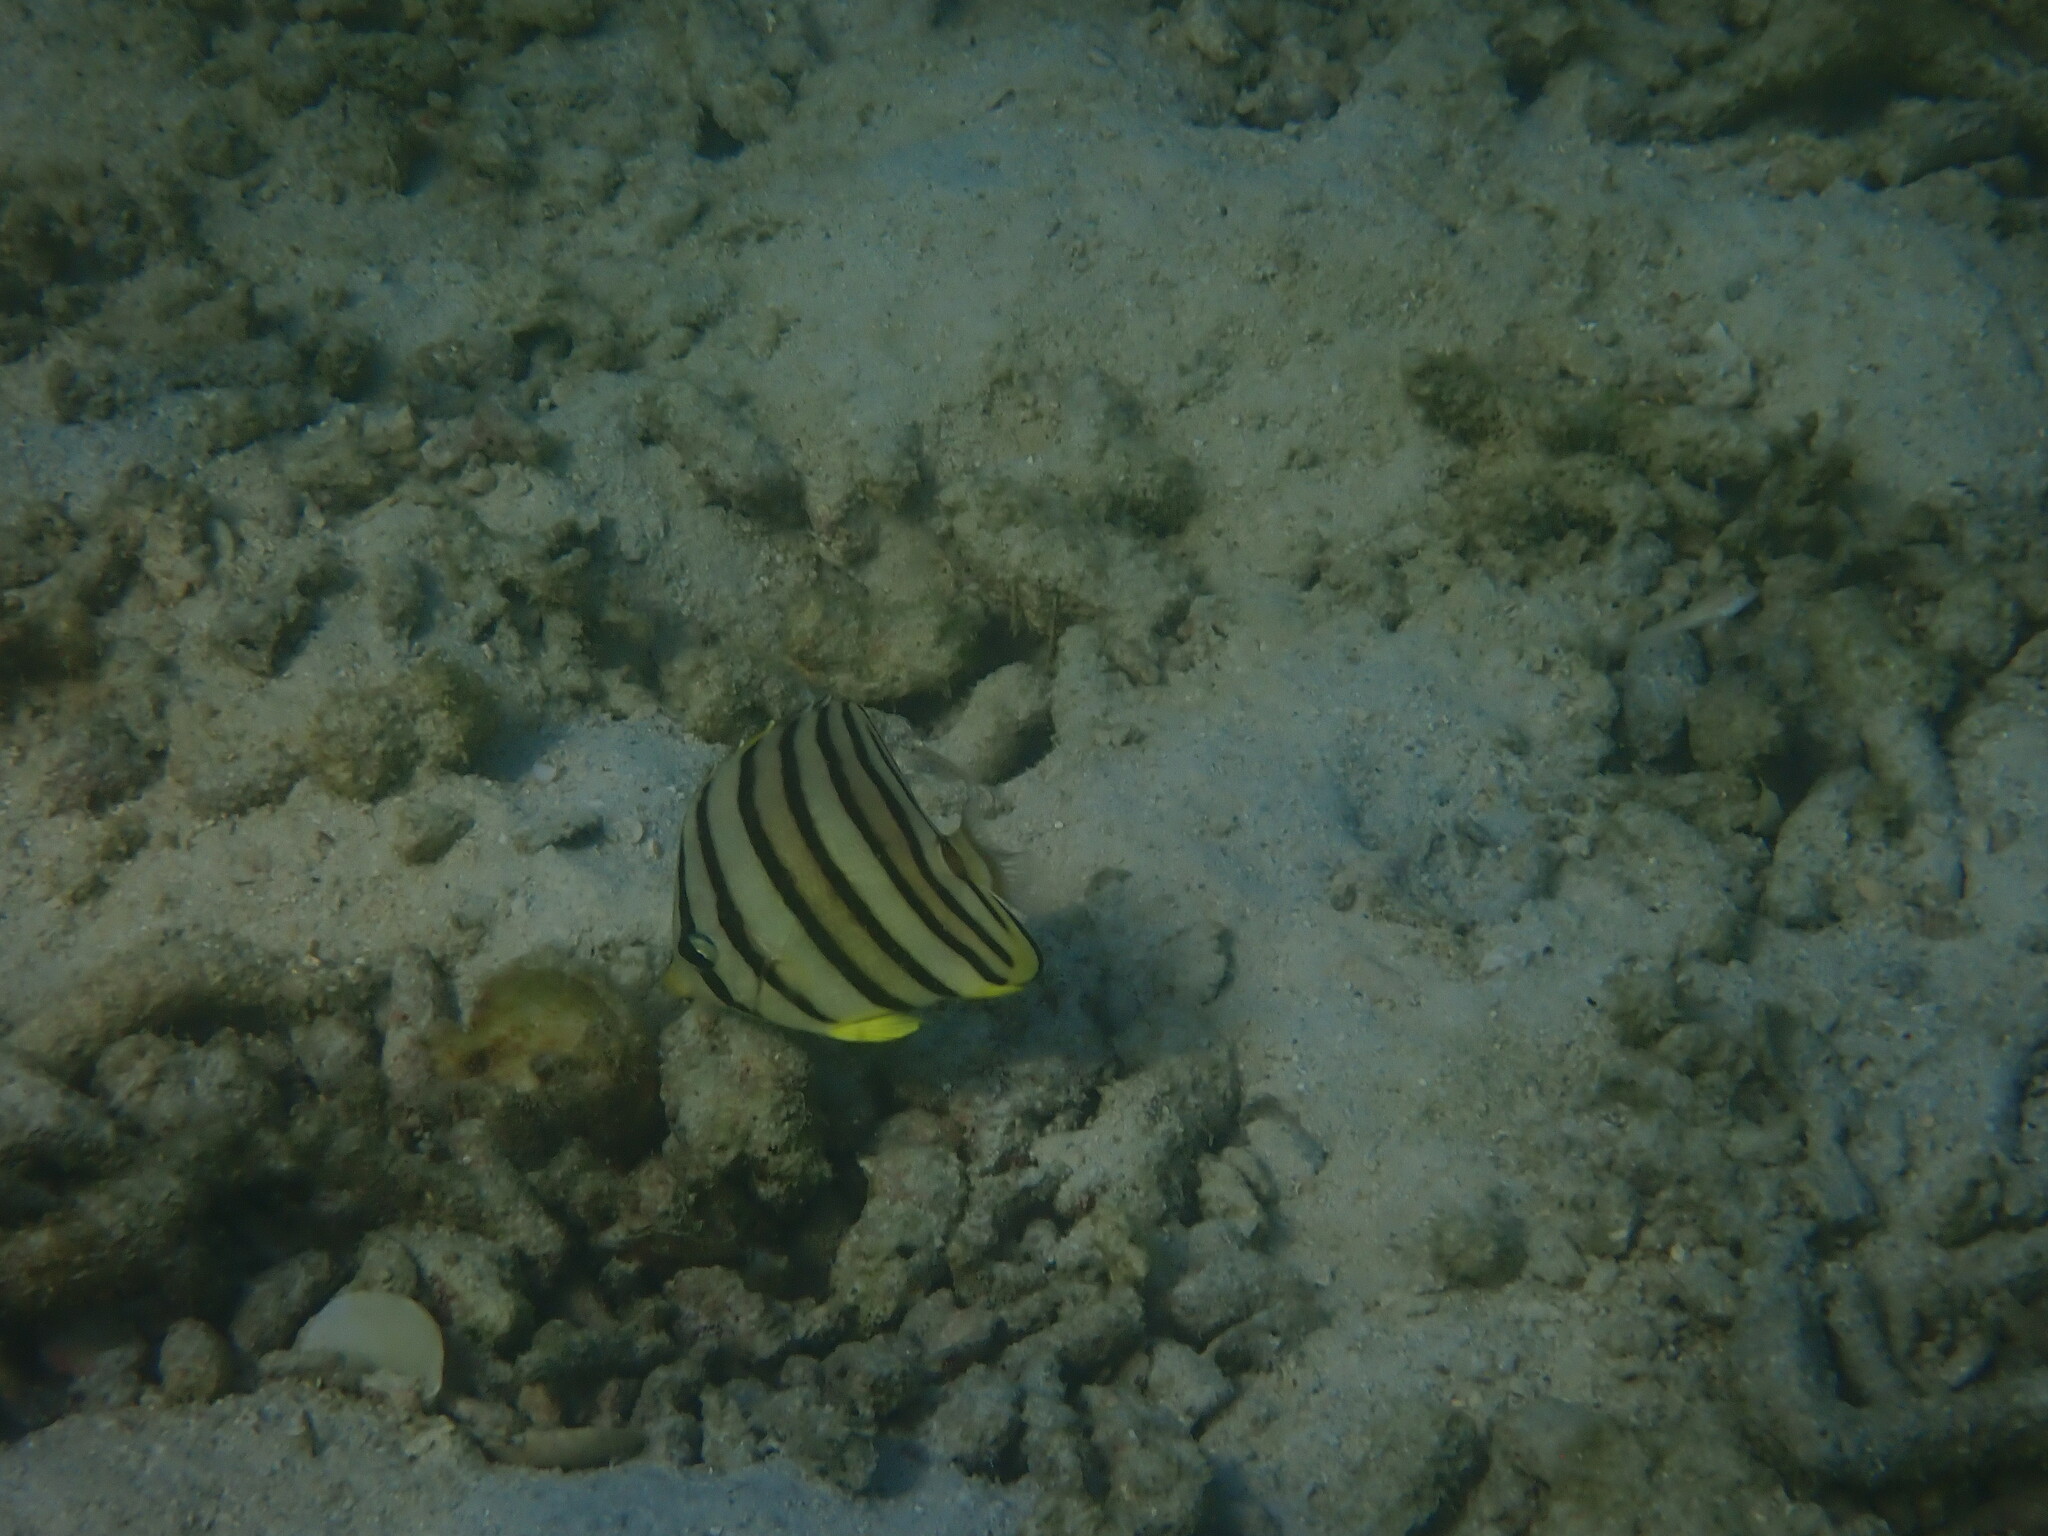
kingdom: Animalia
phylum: Chordata
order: Perciformes
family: Chaetodontidae
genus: Chaetodon
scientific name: Chaetodon octofasciatus
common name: Eightband butterflyfish
